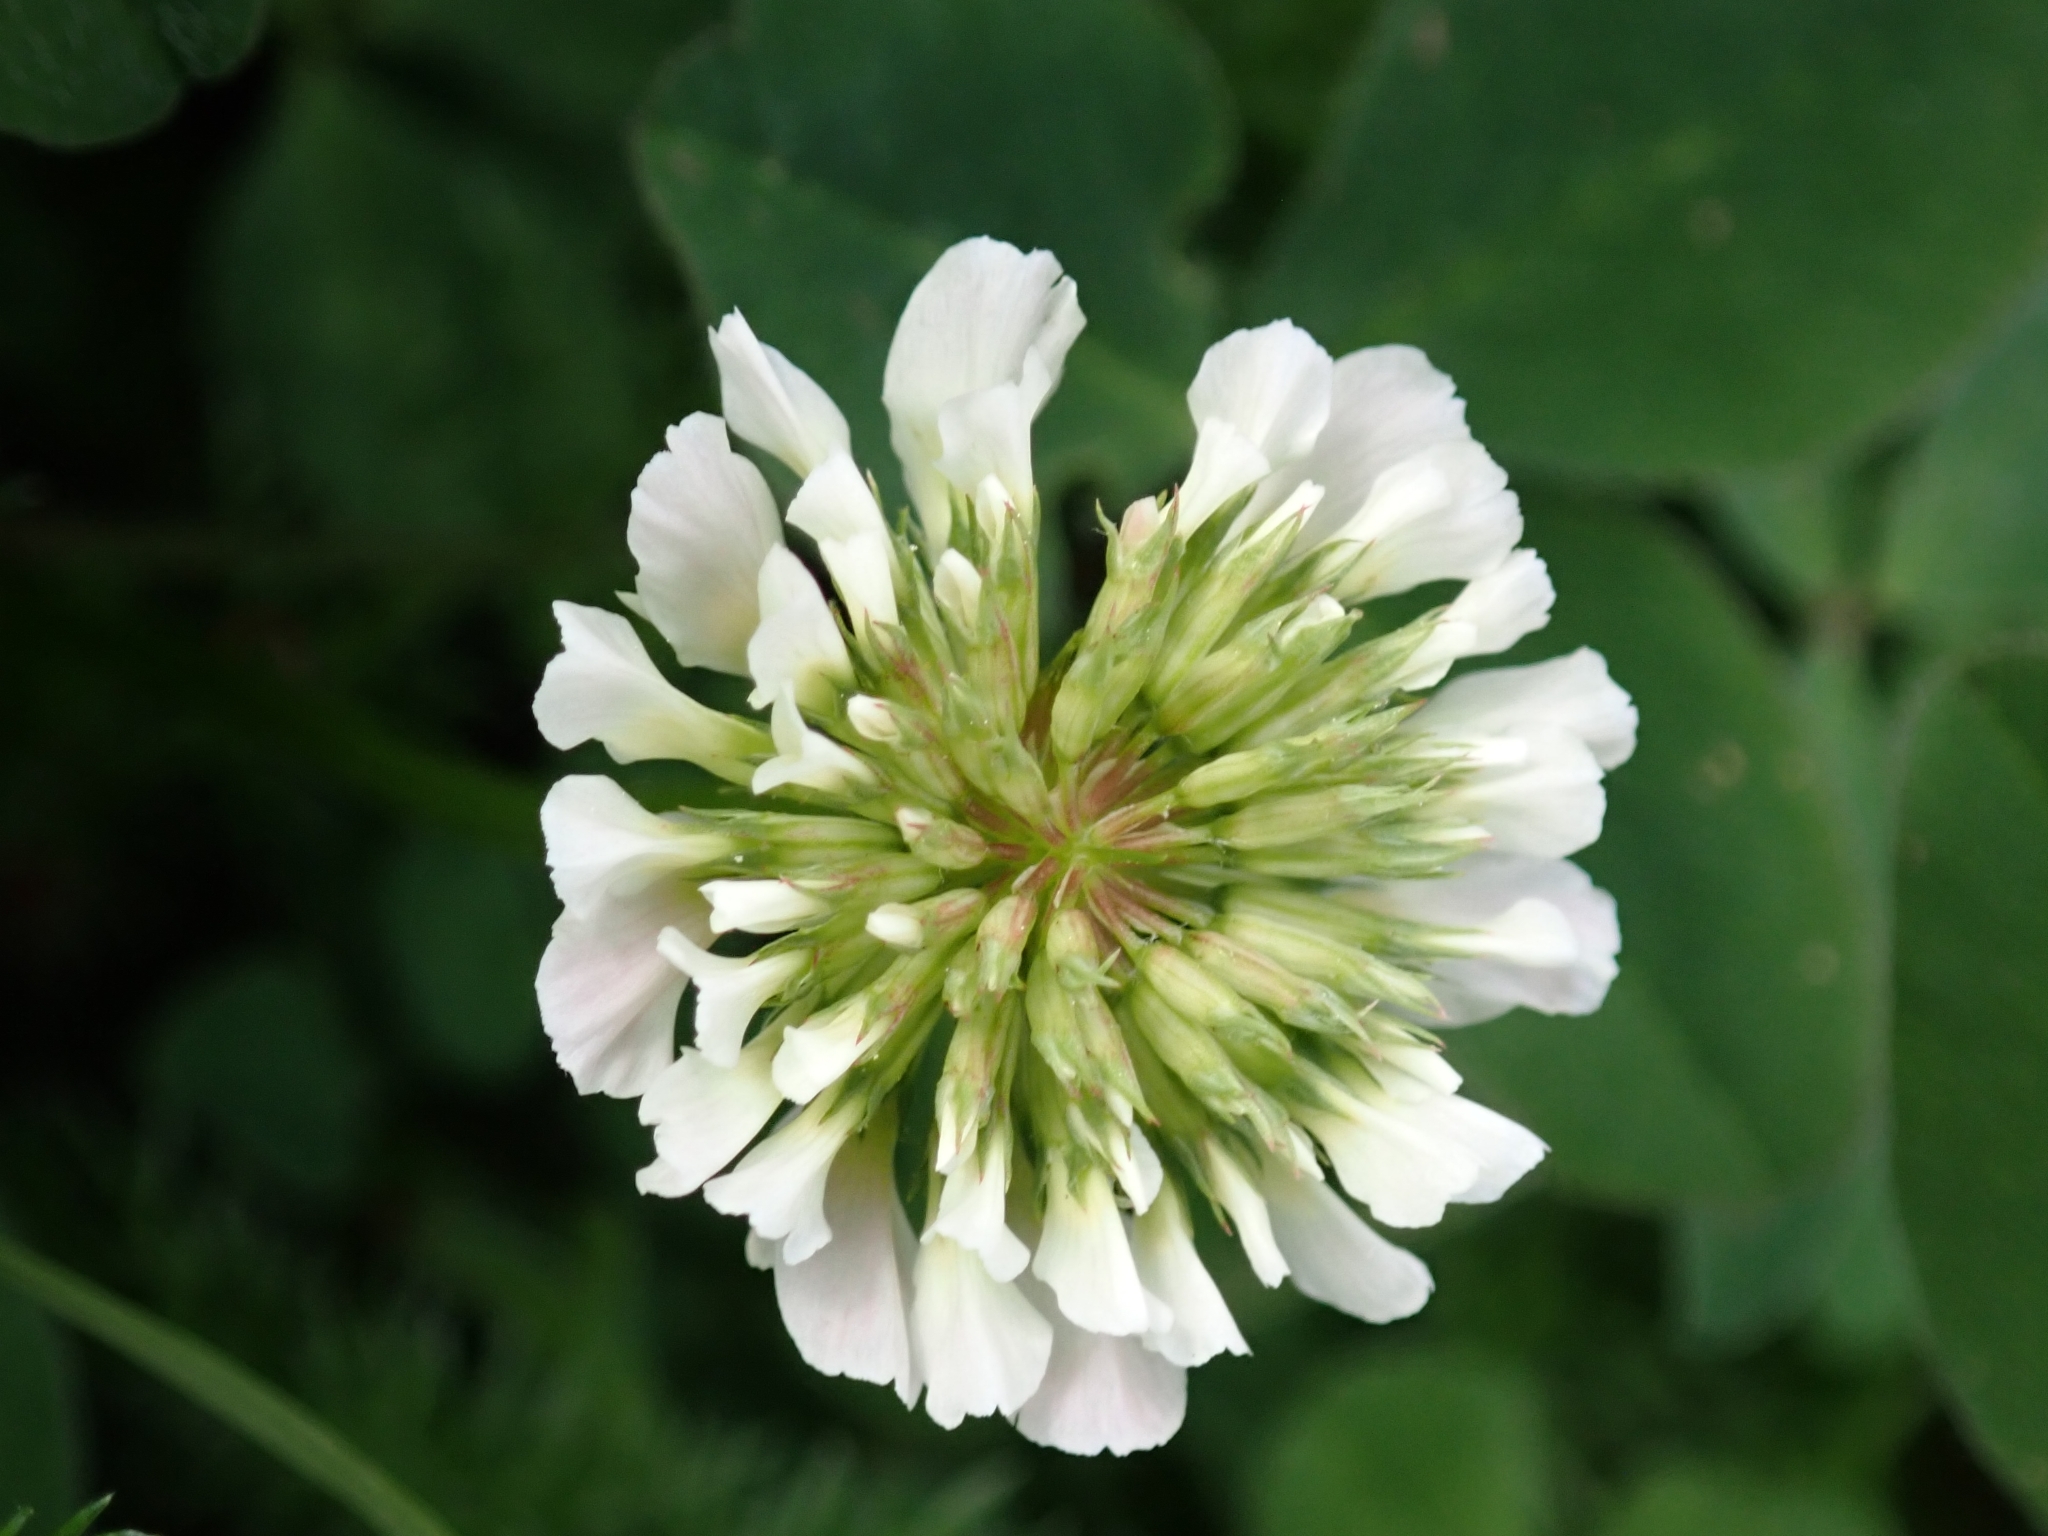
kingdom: Plantae
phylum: Tracheophyta
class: Magnoliopsida
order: Fabales
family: Fabaceae
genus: Trifolium
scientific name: Trifolium repens
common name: White clover
